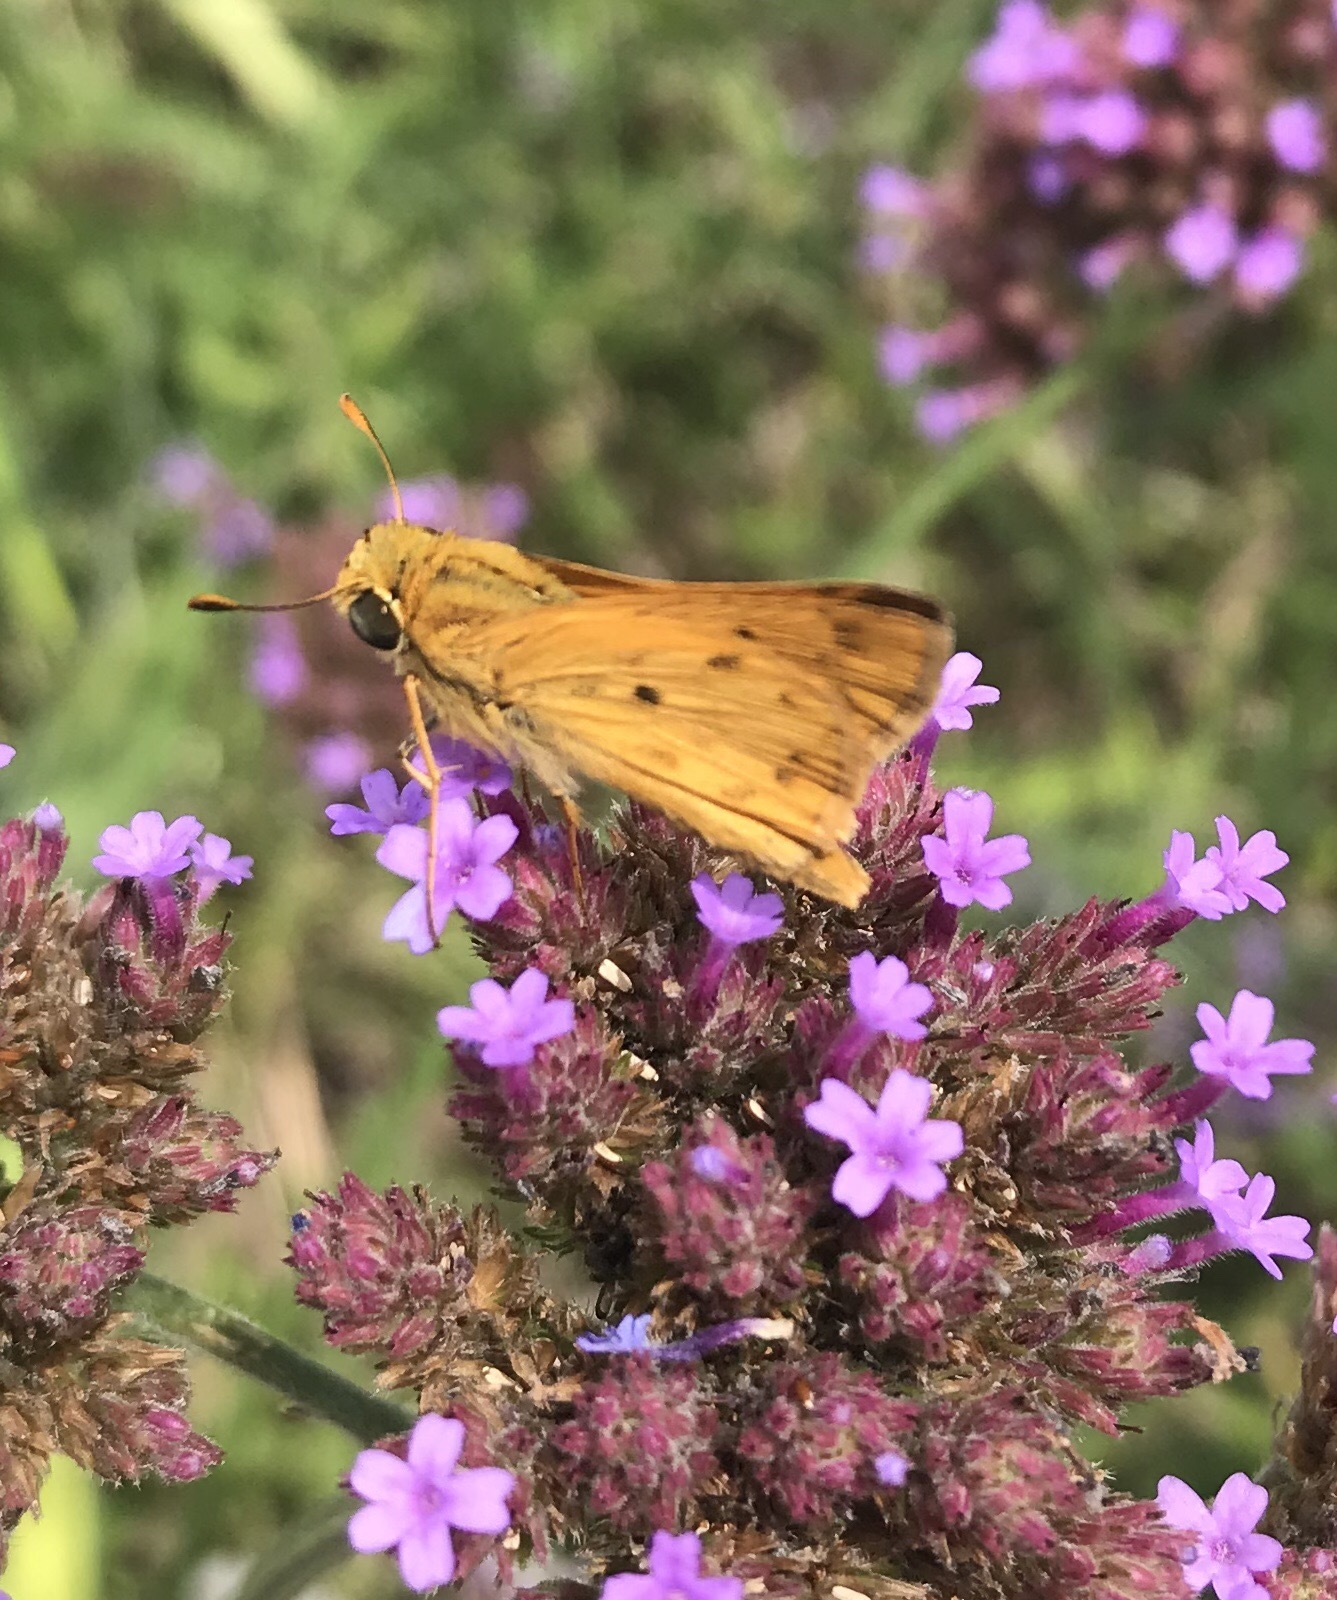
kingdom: Animalia
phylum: Arthropoda
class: Insecta
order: Lepidoptera
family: Hesperiidae
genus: Hylephila
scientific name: Hylephila phyleus
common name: Fiery skipper
